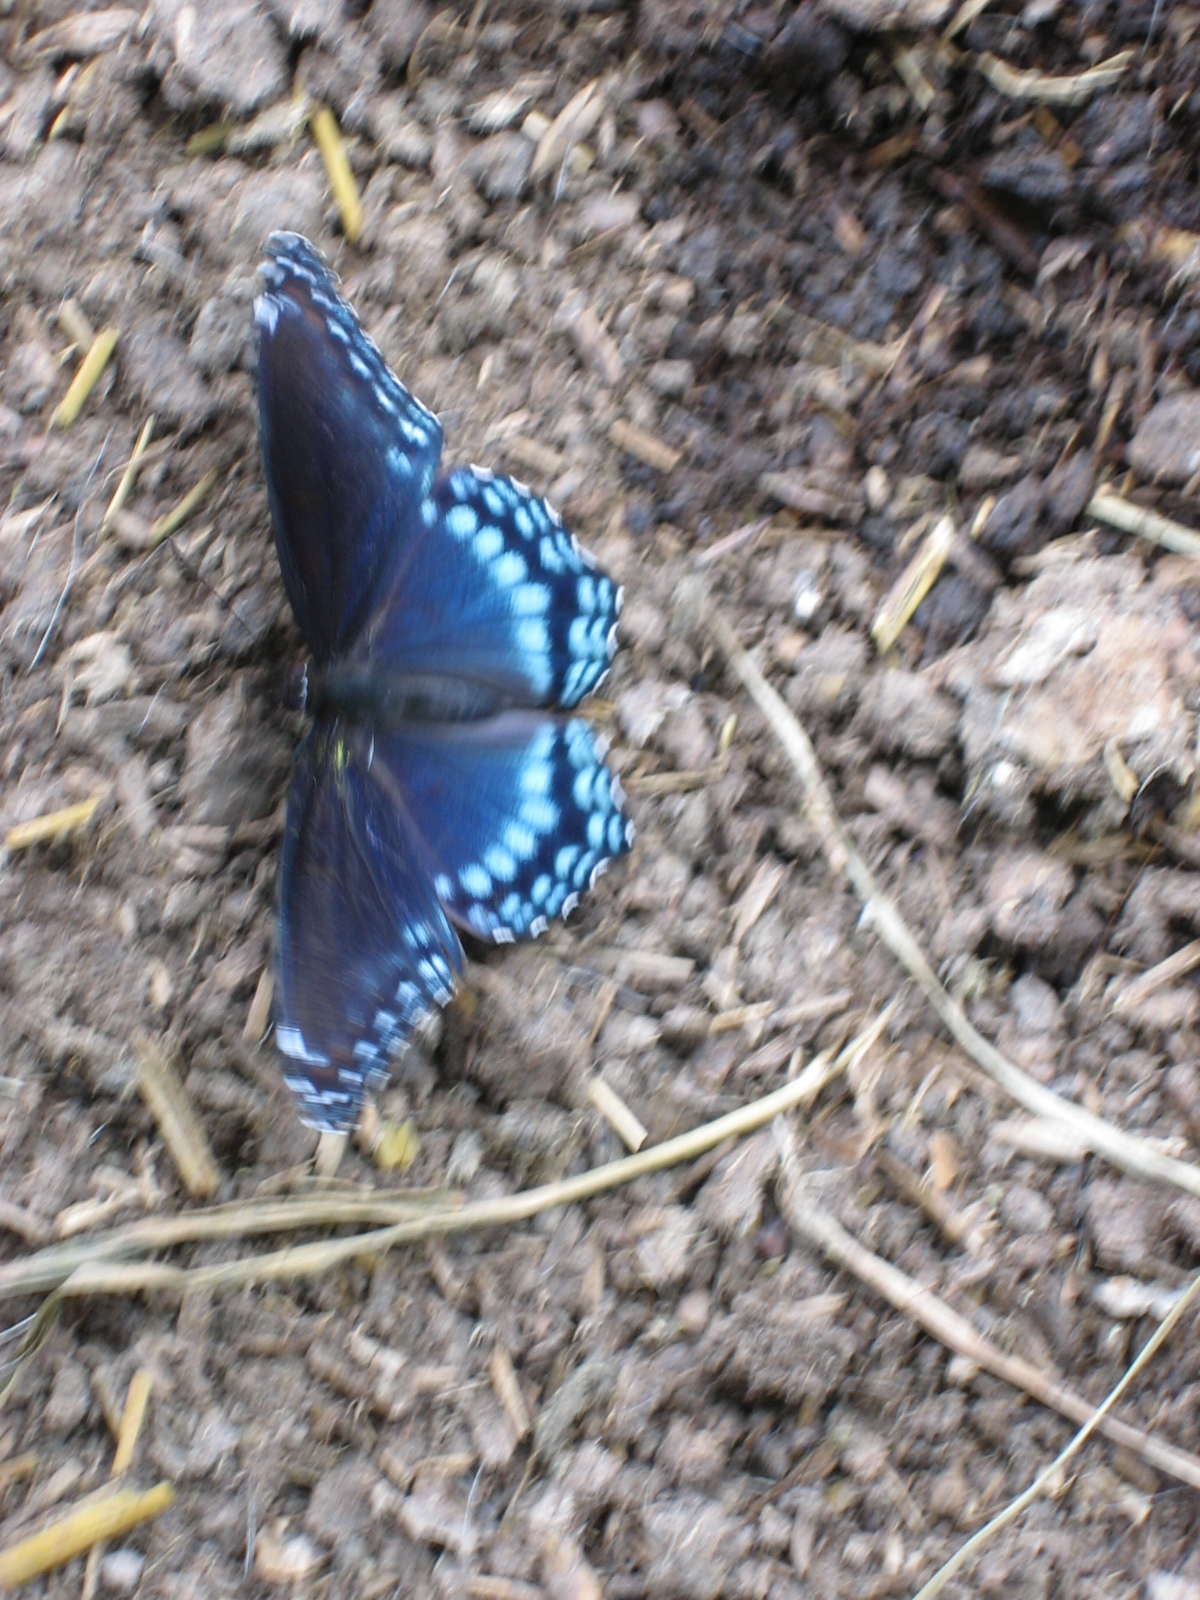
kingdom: Animalia
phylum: Arthropoda
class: Insecta
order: Lepidoptera
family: Nymphalidae
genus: Limenitis
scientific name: Limenitis arthemis
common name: Red-spotted admiral
